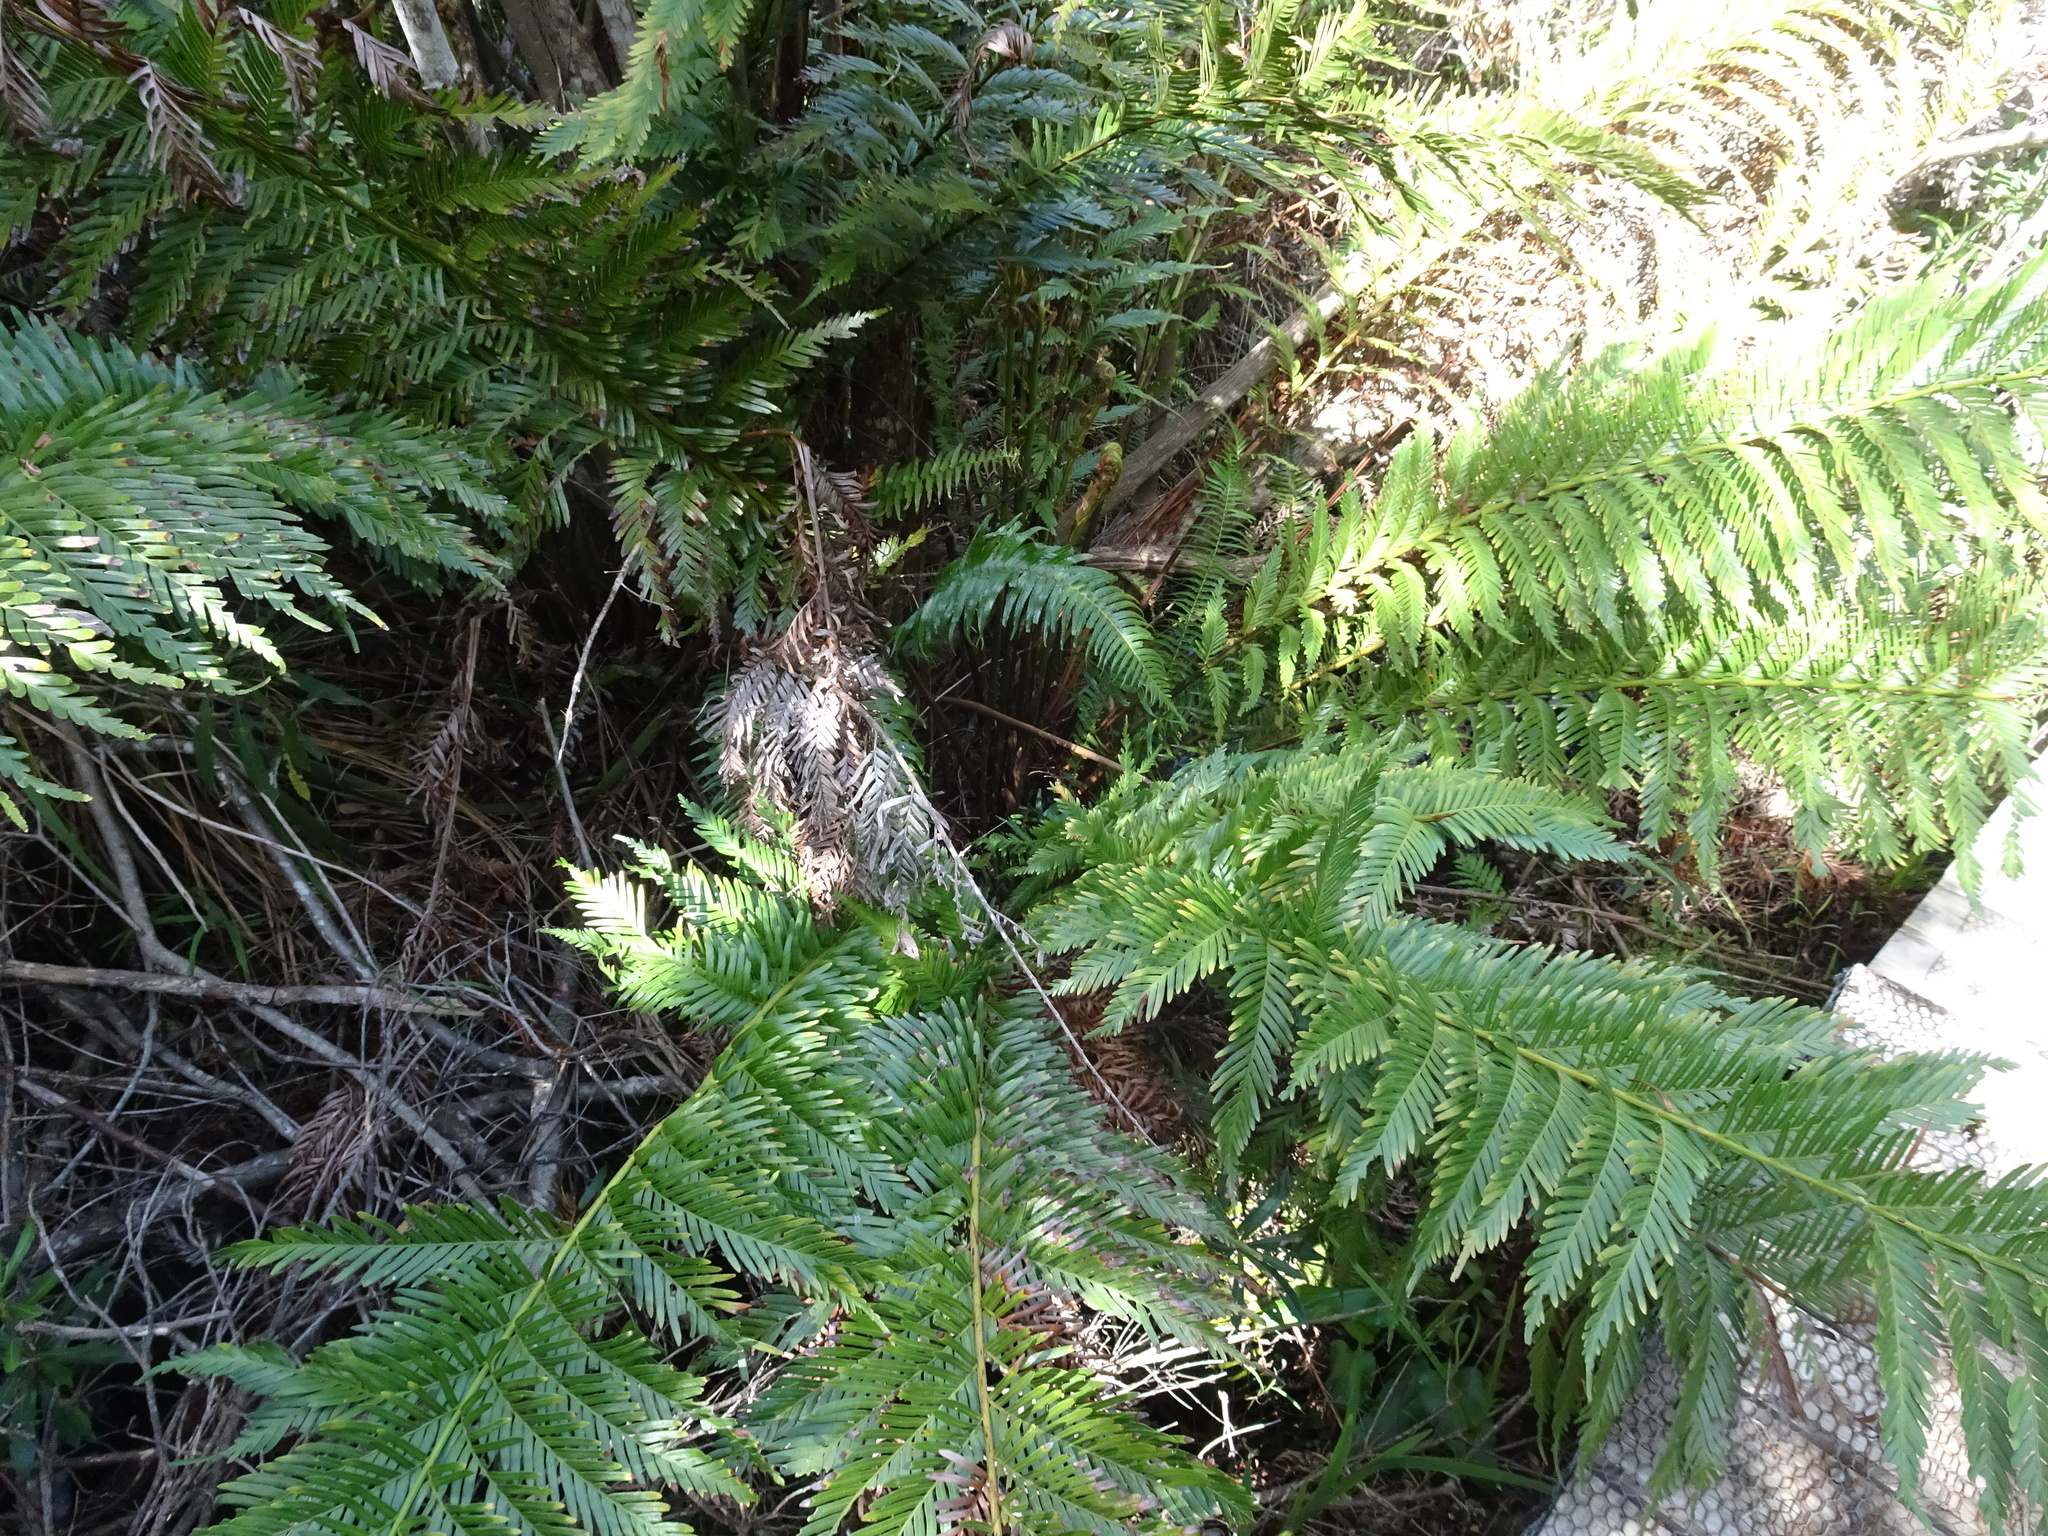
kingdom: Plantae
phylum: Tracheophyta
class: Polypodiopsida
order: Osmundales
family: Osmundaceae
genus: Todea
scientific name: Todea barbara
